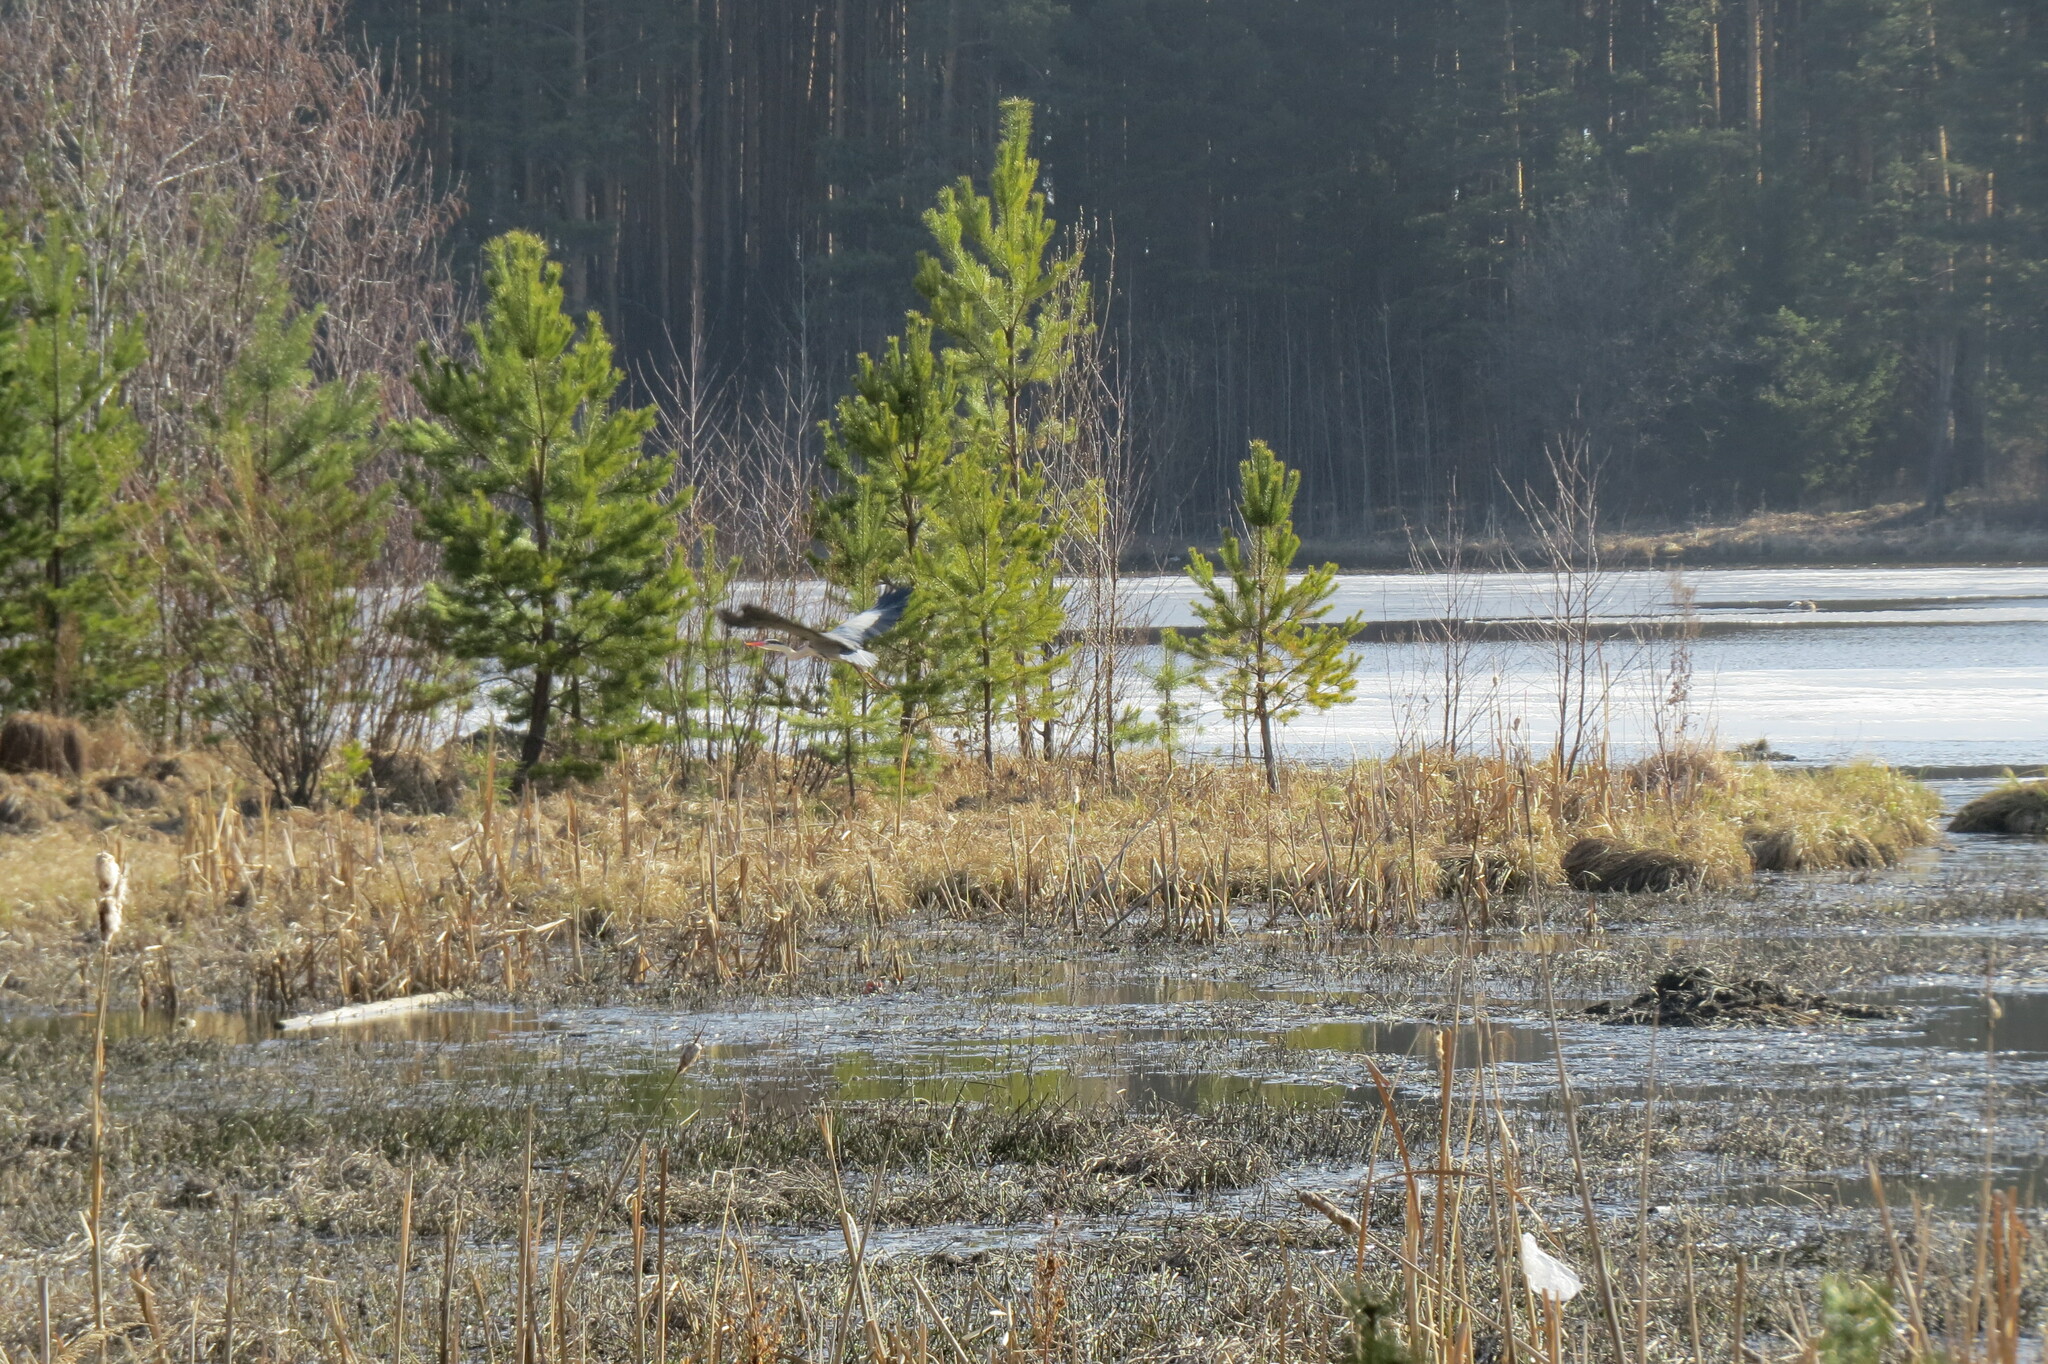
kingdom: Animalia
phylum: Chordata
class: Aves
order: Pelecaniformes
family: Ardeidae
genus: Ardea
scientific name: Ardea cinerea
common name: Grey heron
